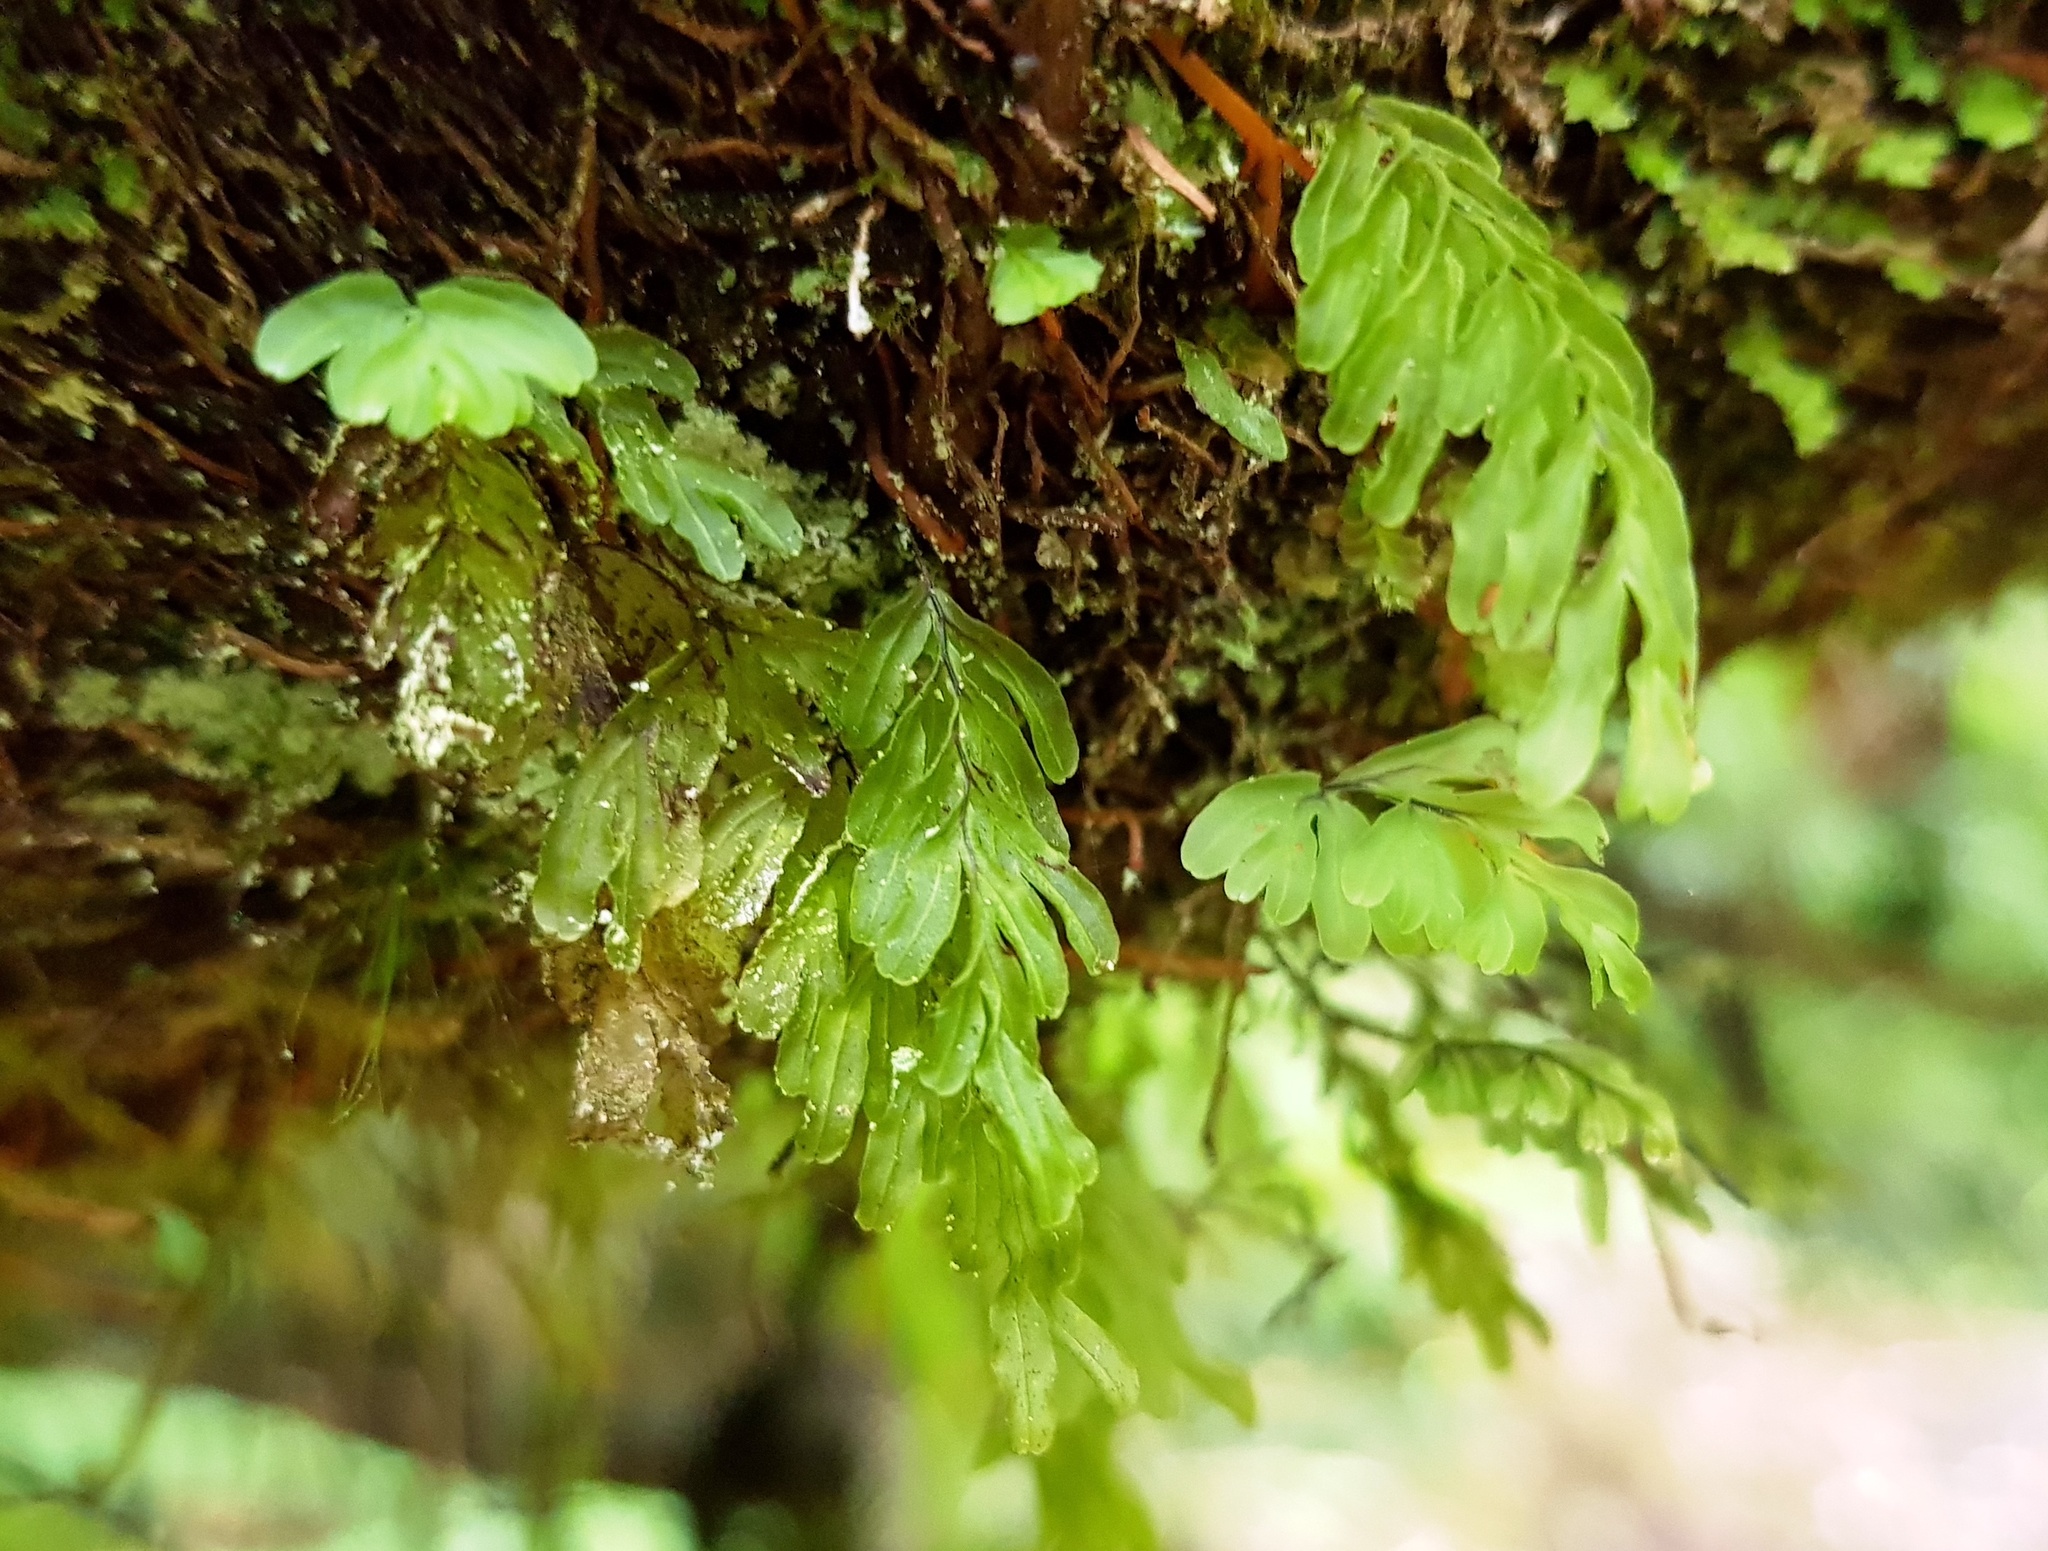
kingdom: Plantae
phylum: Tracheophyta
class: Polypodiopsida
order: Hymenophyllales
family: Hymenophyllaceae
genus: Hymenophyllum
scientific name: Hymenophyllum rarum
